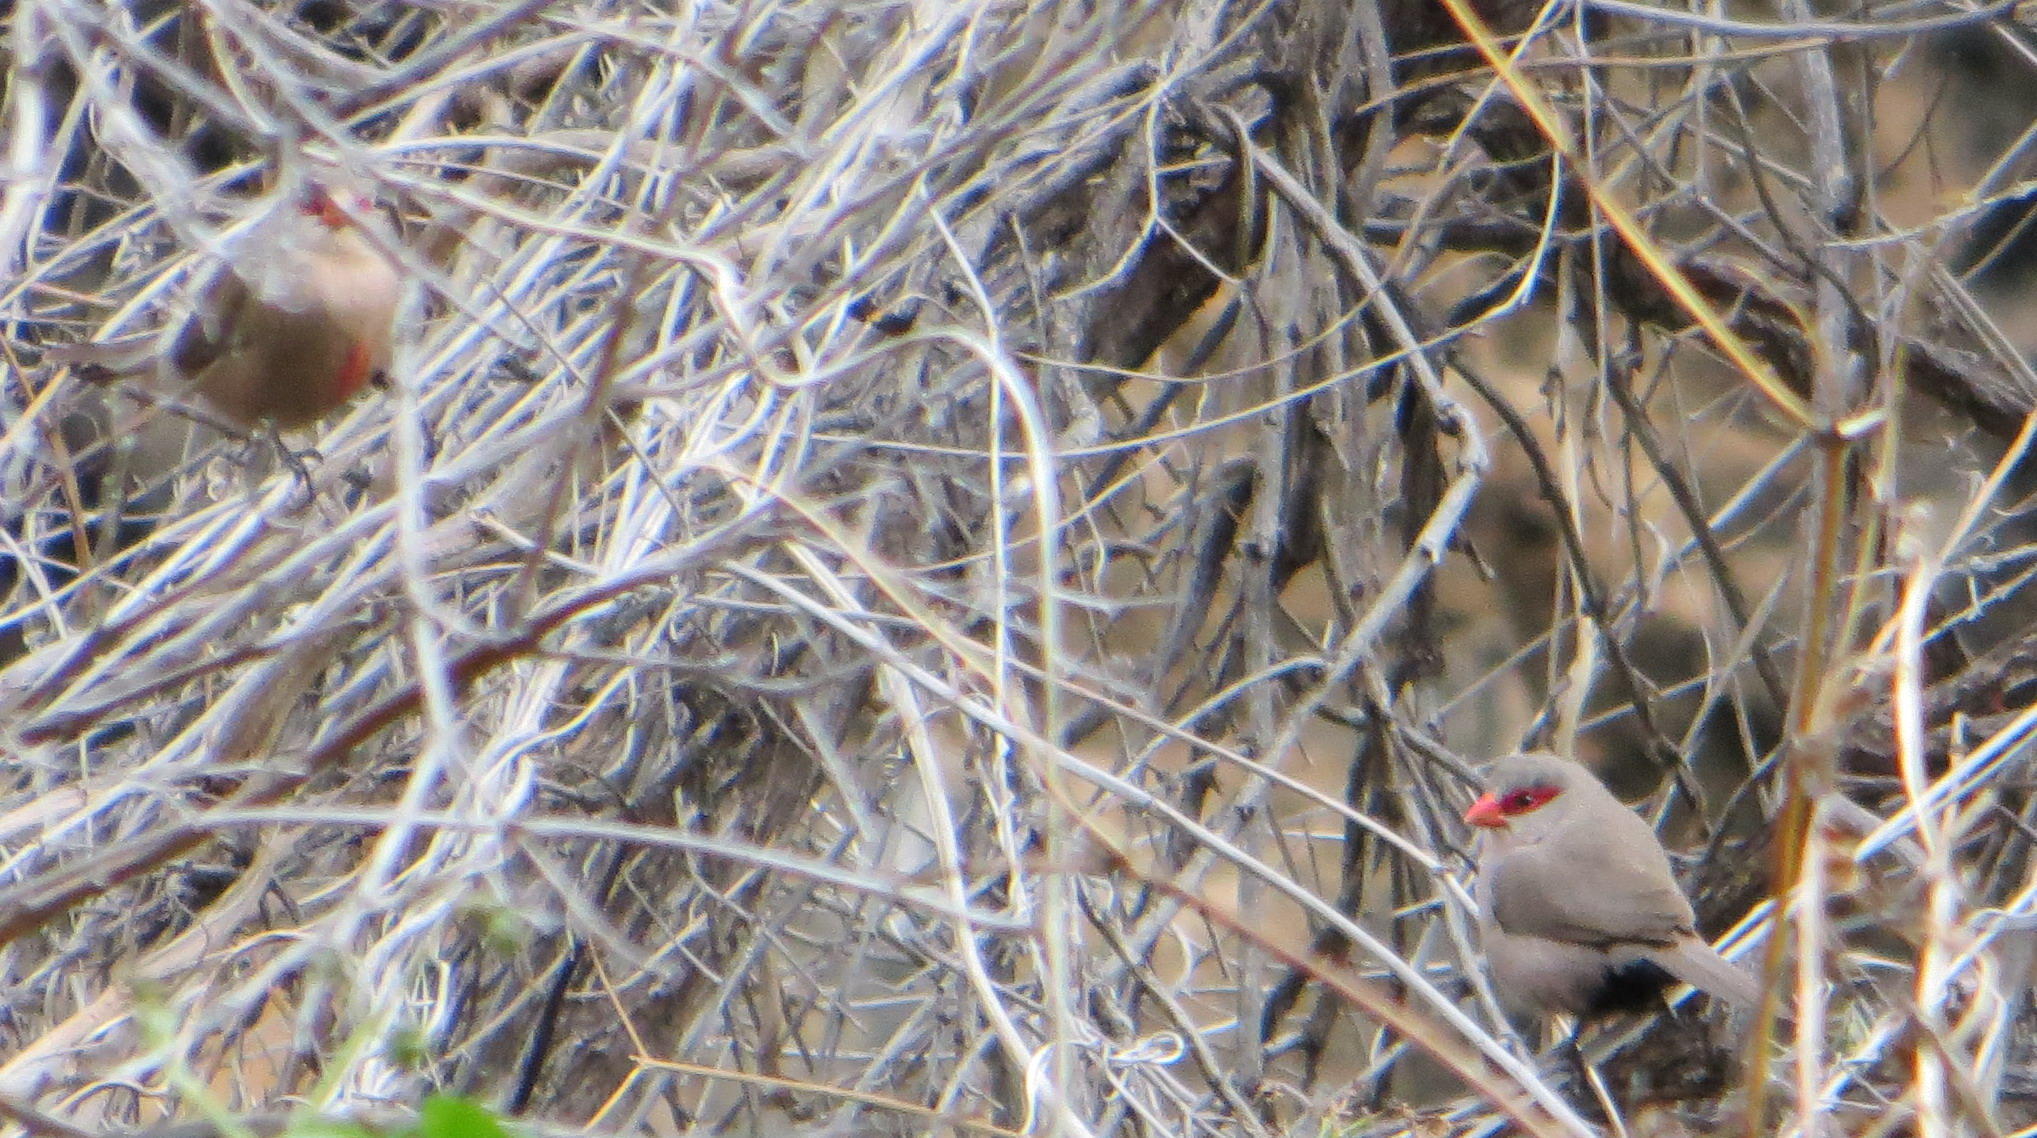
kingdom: Animalia
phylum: Chordata
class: Aves
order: Passeriformes
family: Estrildidae
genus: Estrilda
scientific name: Estrilda astrild
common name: Common waxbill
